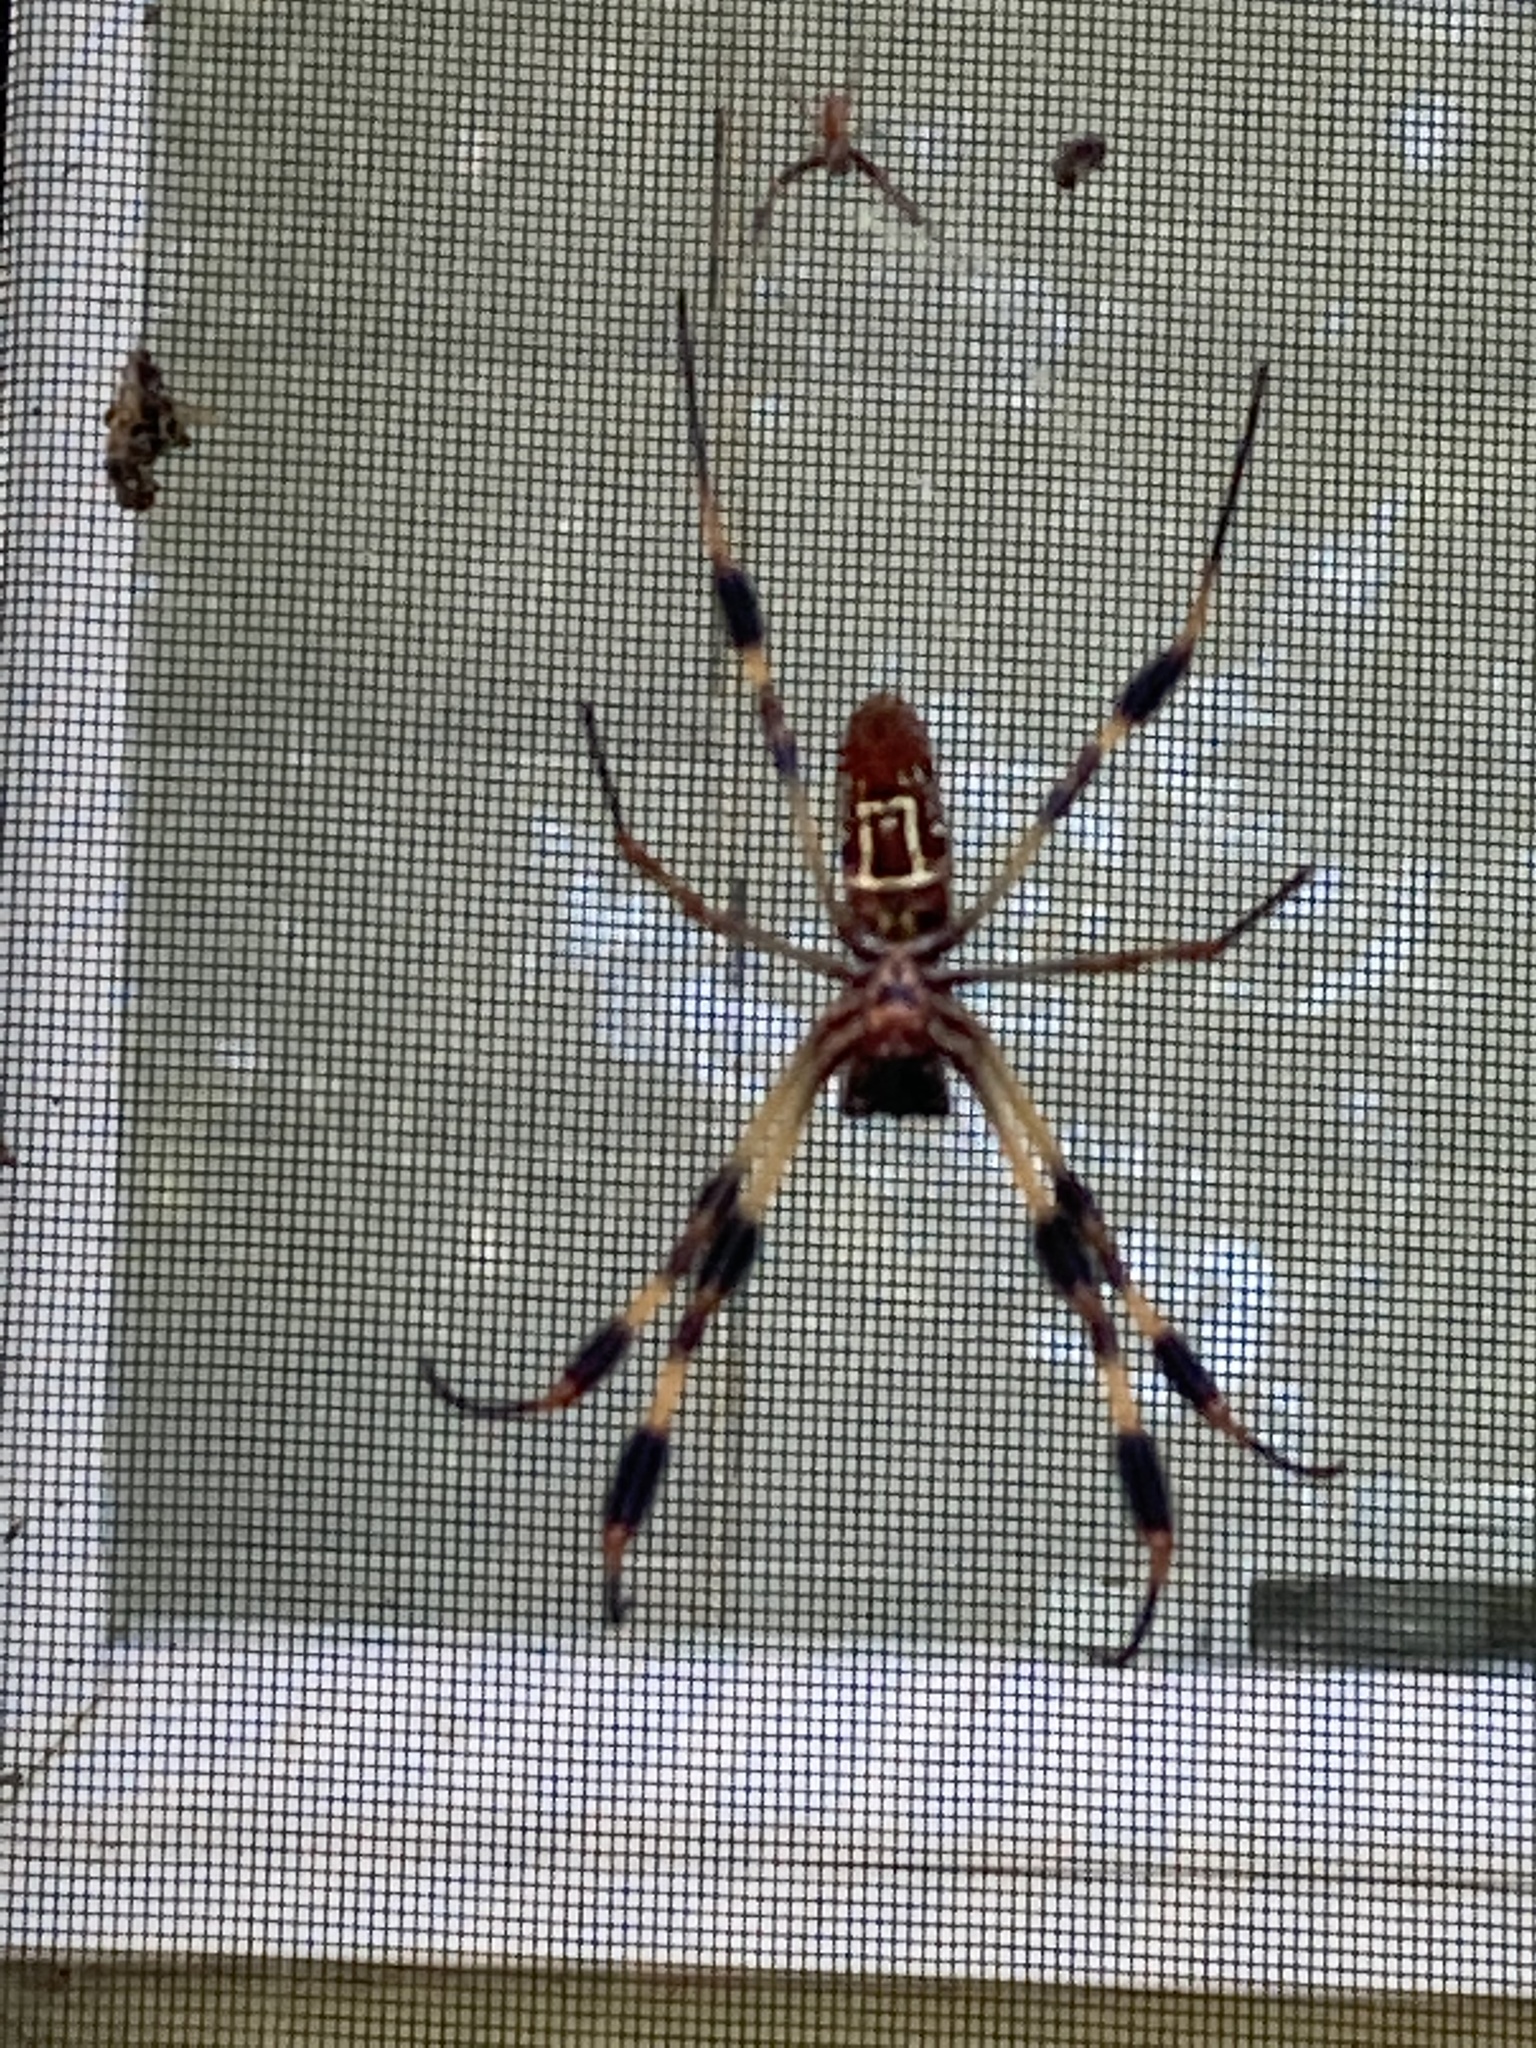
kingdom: Animalia
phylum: Arthropoda
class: Arachnida
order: Araneae
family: Araneidae
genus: Trichonephila
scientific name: Trichonephila clavipes
